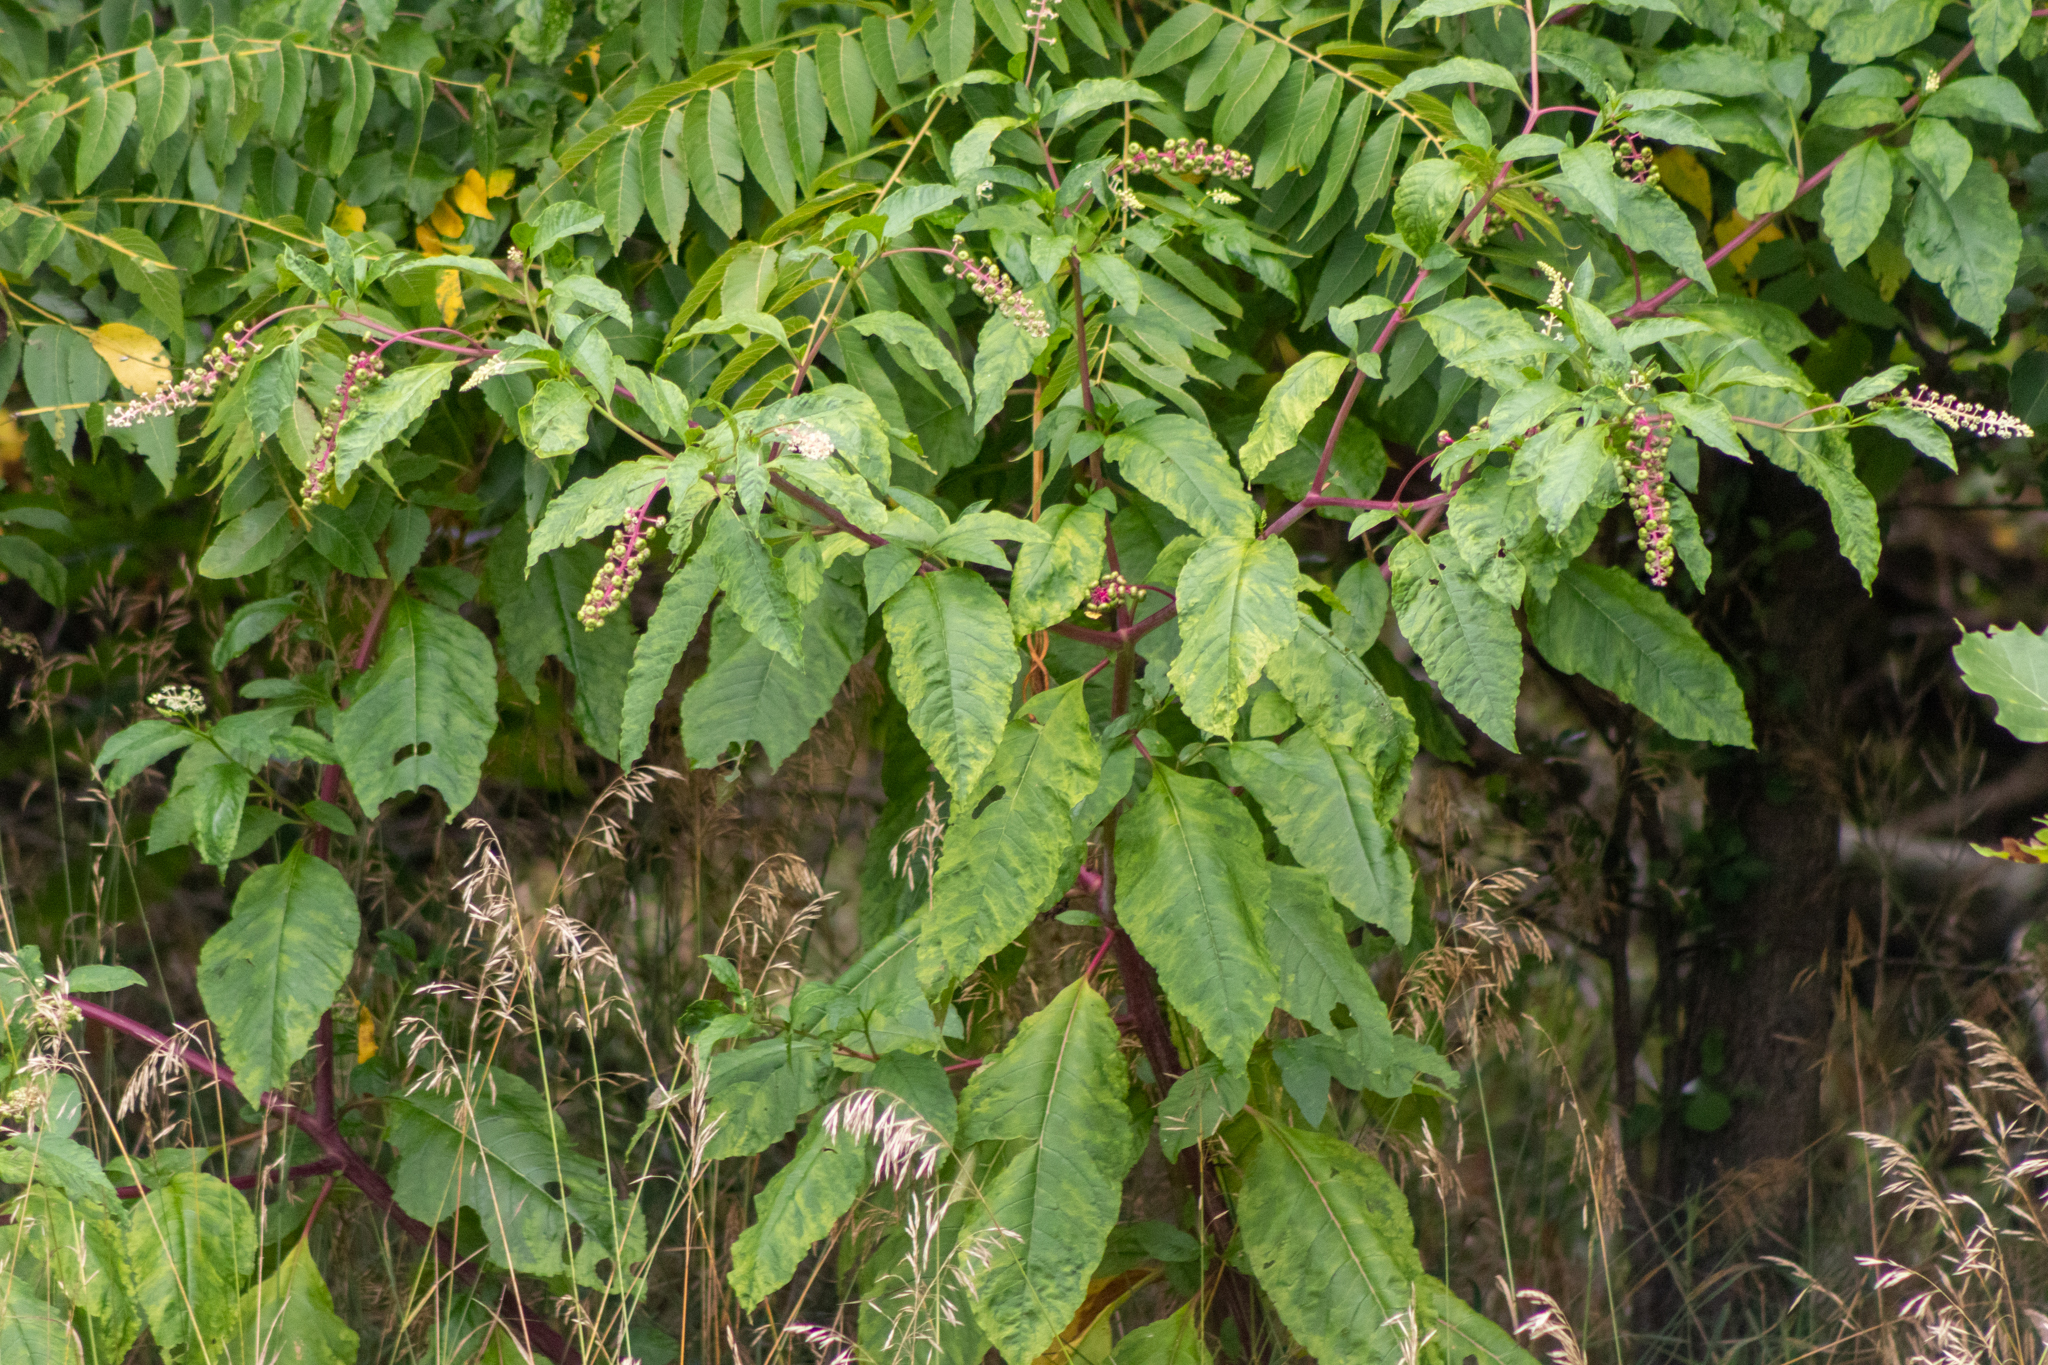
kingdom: Plantae
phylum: Tracheophyta
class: Magnoliopsida
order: Caryophyllales
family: Phytolaccaceae
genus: Phytolacca
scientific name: Phytolacca americana
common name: American pokeweed
